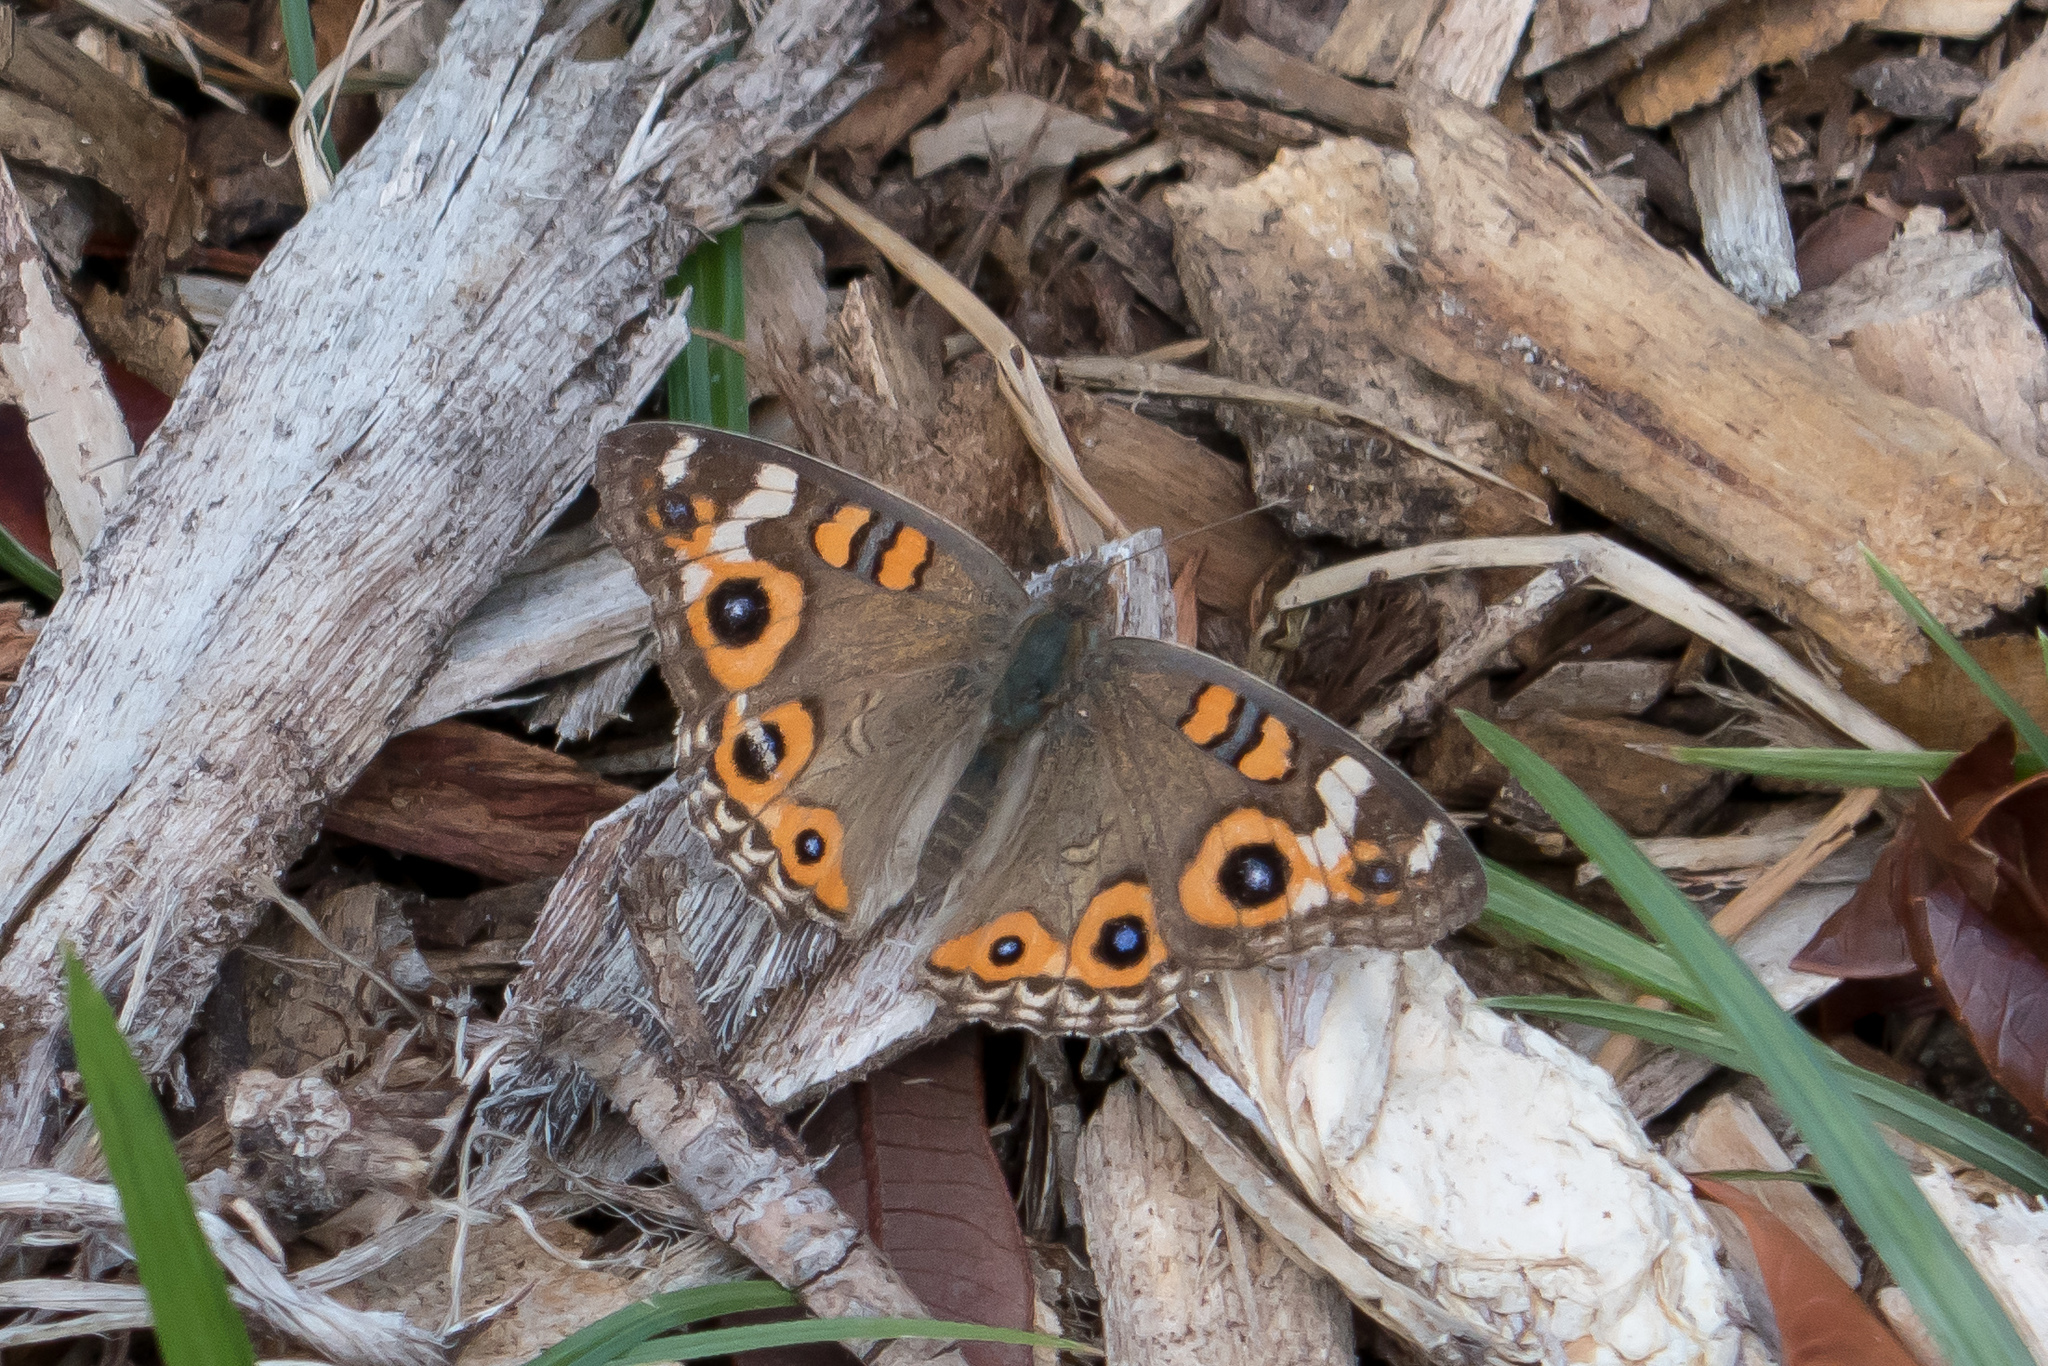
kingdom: Animalia
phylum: Arthropoda
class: Insecta
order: Lepidoptera
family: Nymphalidae
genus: Junonia
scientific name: Junonia villida
